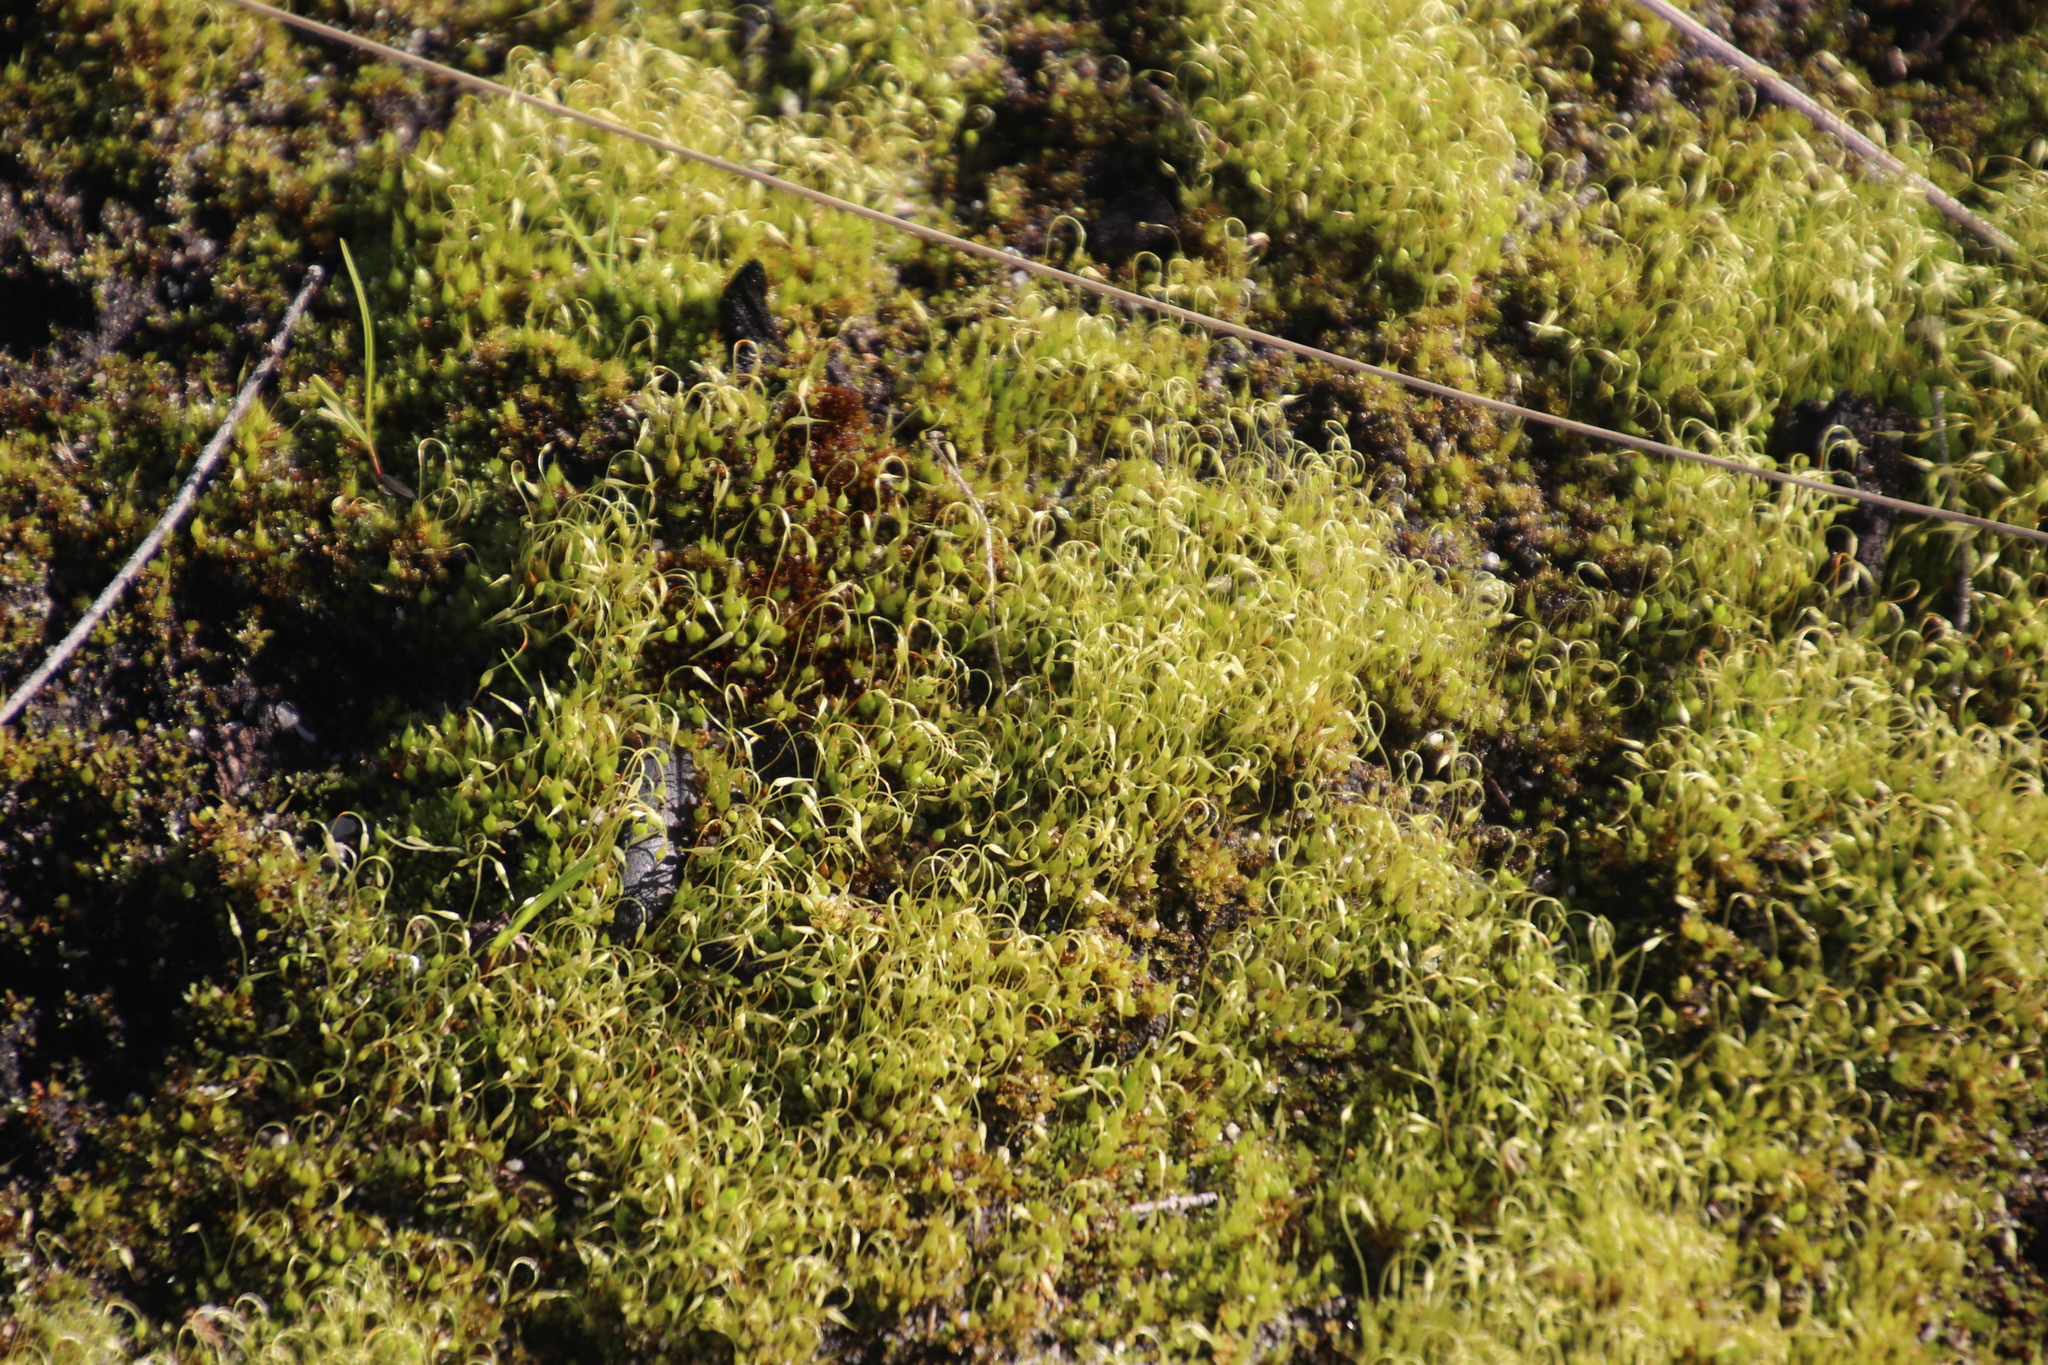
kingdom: Plantae
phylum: Bryophyta
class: Bryopsida
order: Funariales
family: Funariaceae
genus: Funaria
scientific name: Funaria hygrometrica
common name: Common cord moss
